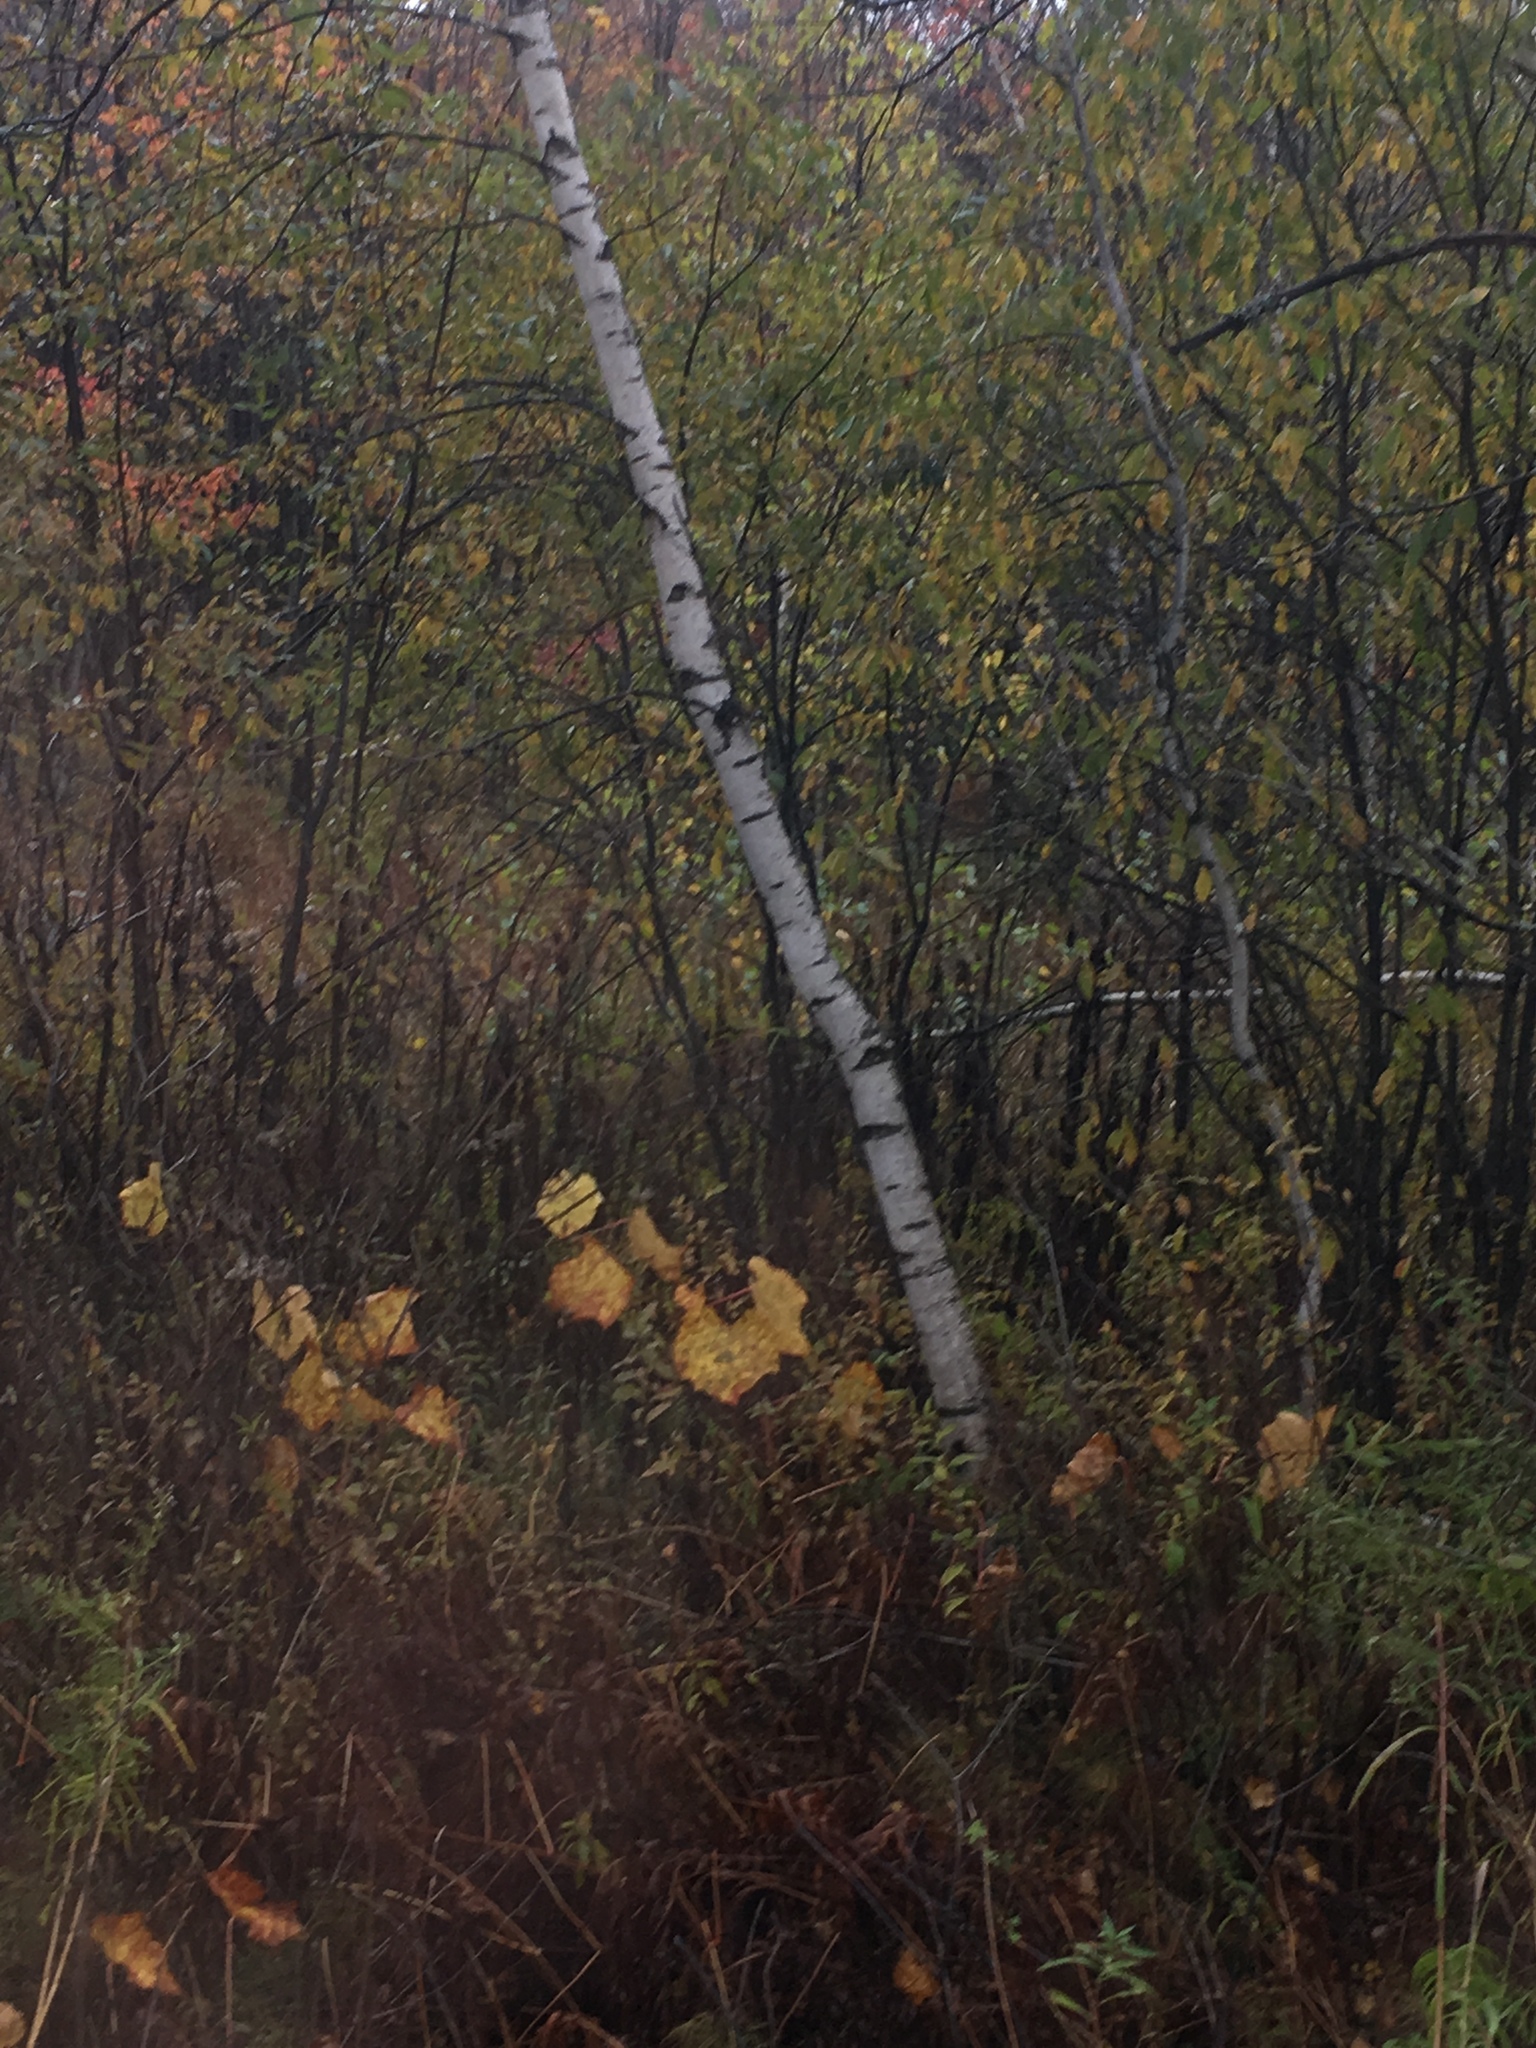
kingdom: Plantae
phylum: Tracheophyta
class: Magnoliopsida
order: Fagales
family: Betulaceae
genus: Betula
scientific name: Betula populifolia
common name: Fire birch
